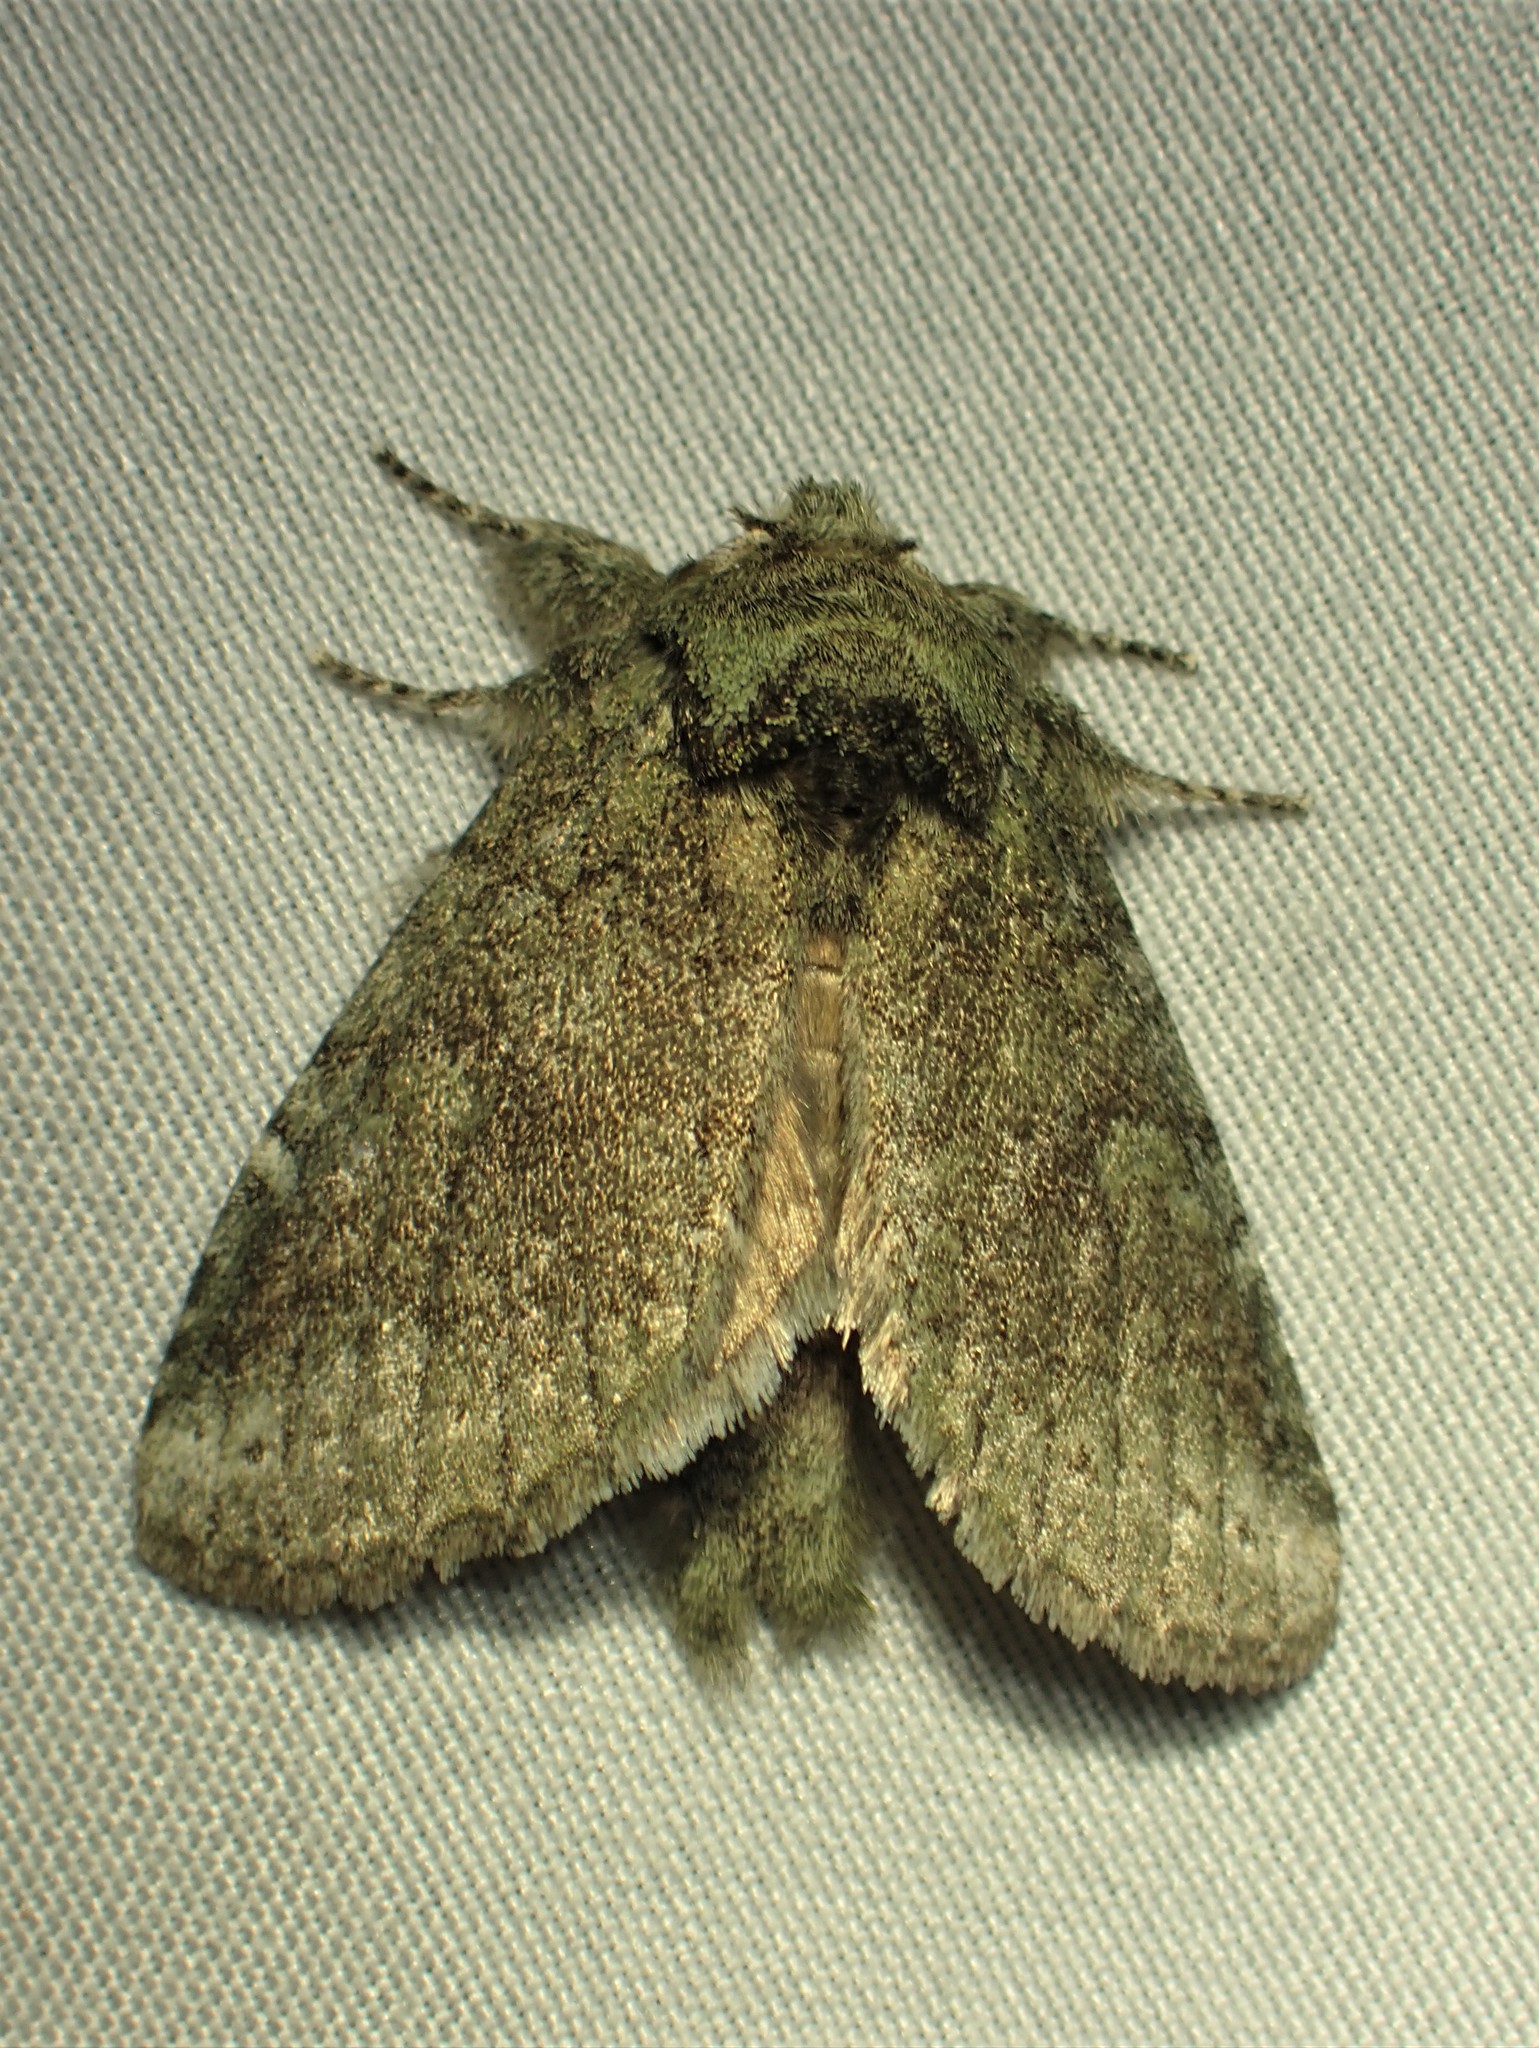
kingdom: Animalia
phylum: Arthropoda
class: Insecta
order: Lepidoptera
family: Notodontidae
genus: Disphragis
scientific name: Disphragis Cecrita guttivitta
